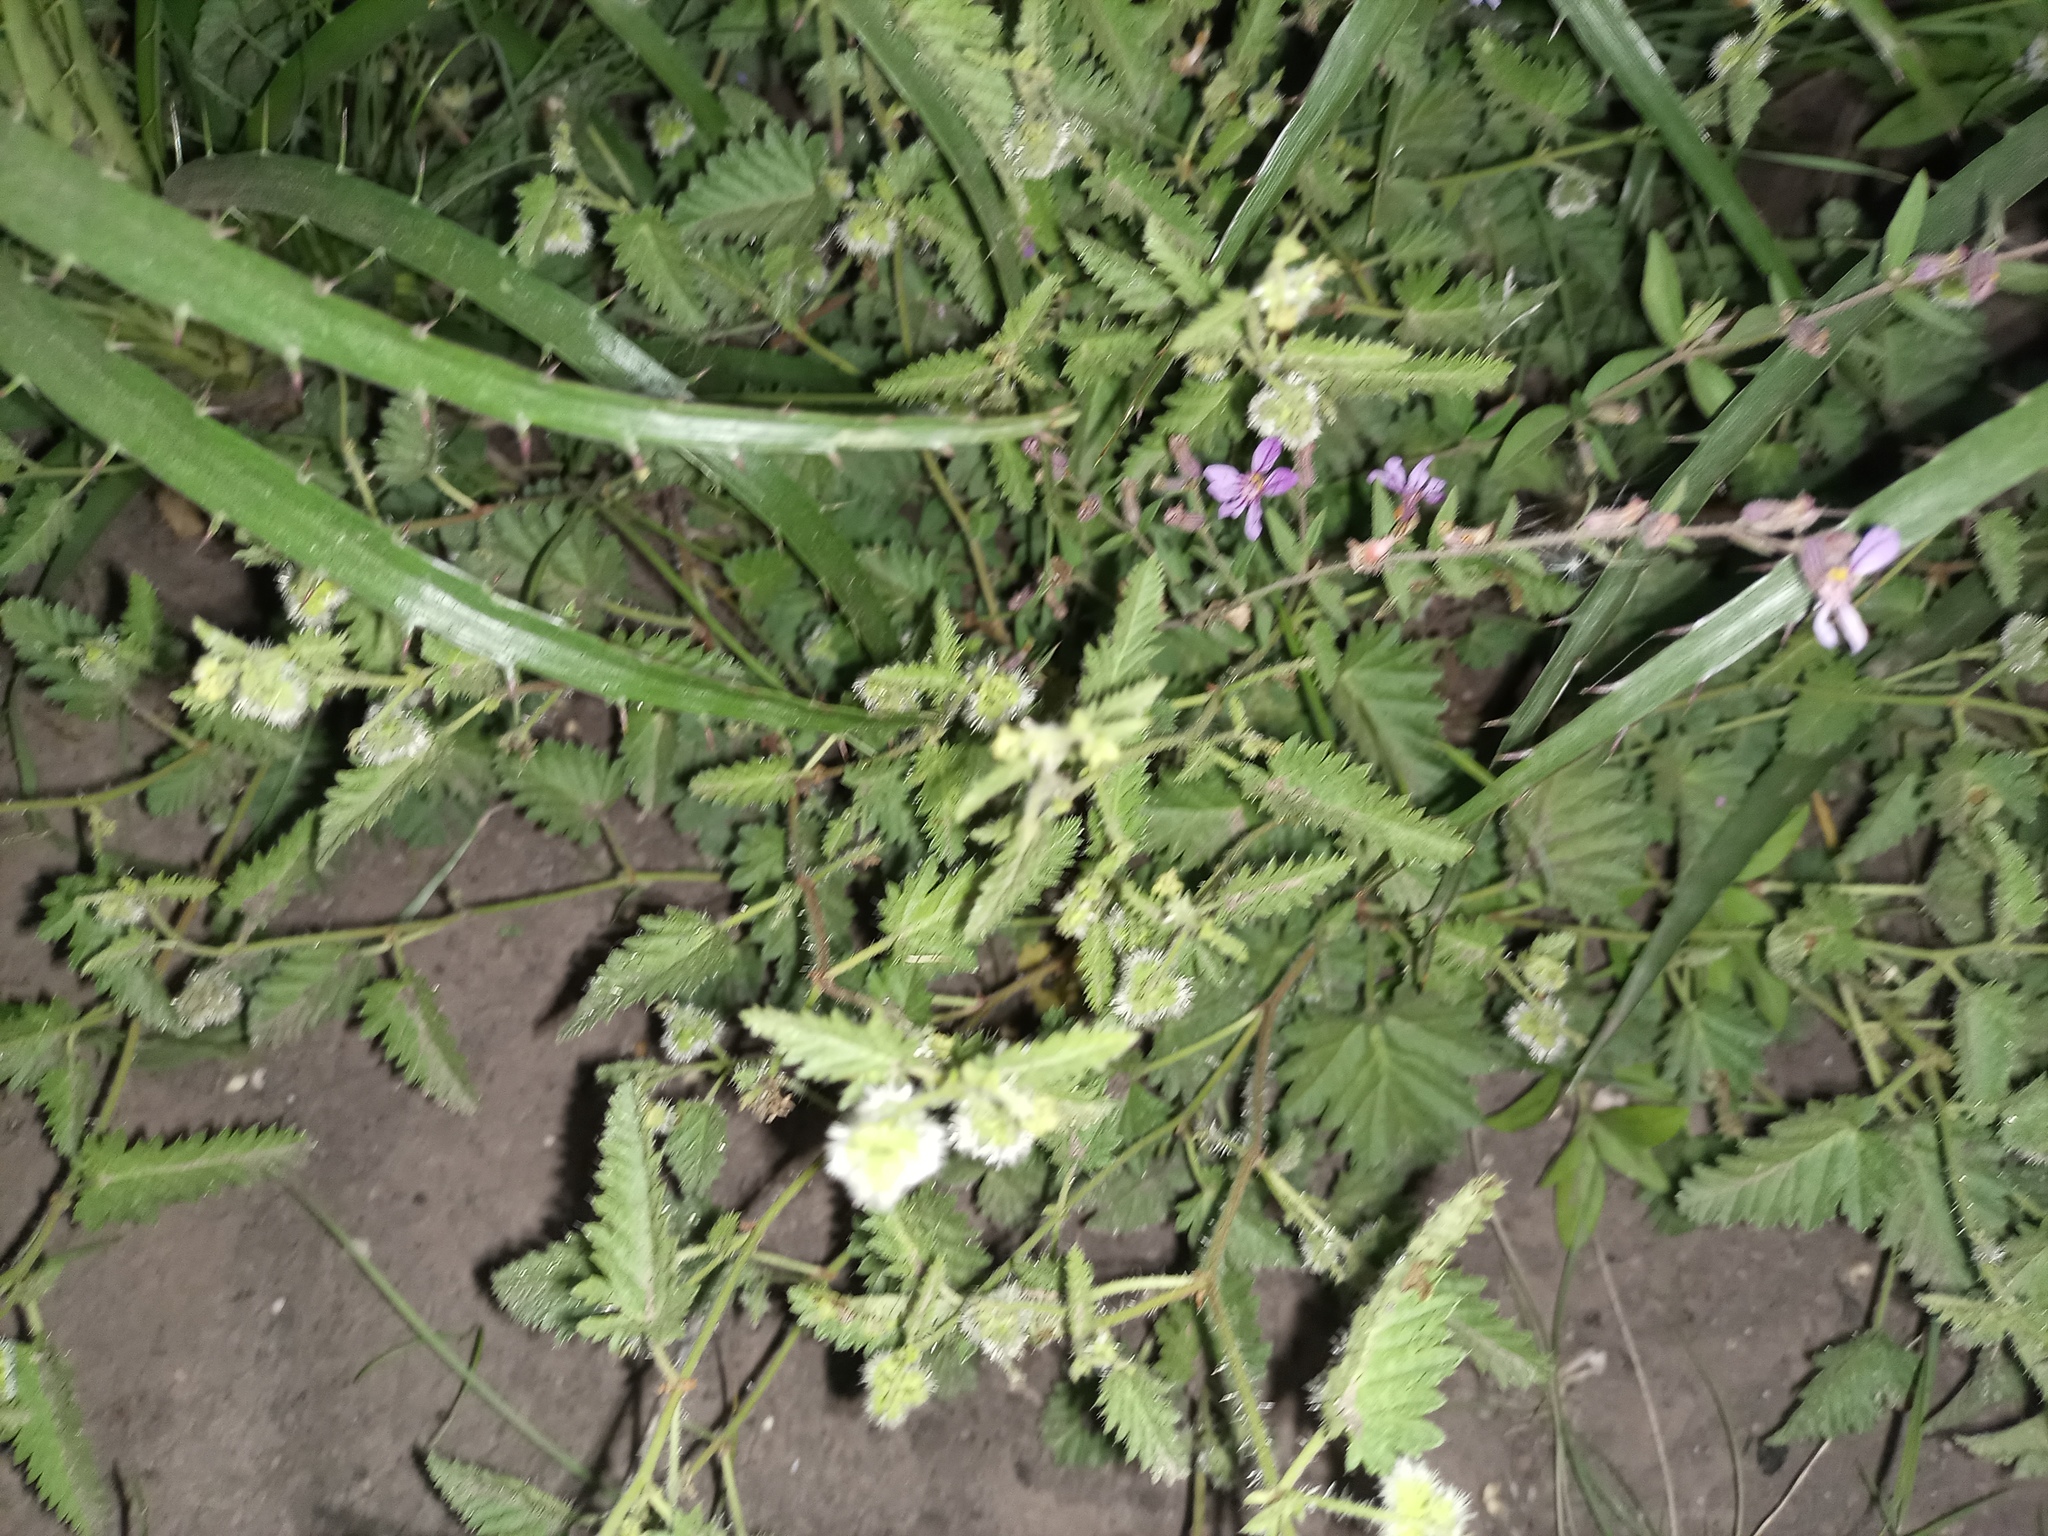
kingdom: Plantae
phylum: Tracheophyta
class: Magnoliopsida
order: Myrtales
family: Lythraceae
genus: Cuphea
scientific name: Cuphea glutinosa
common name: Sticky waxweed
